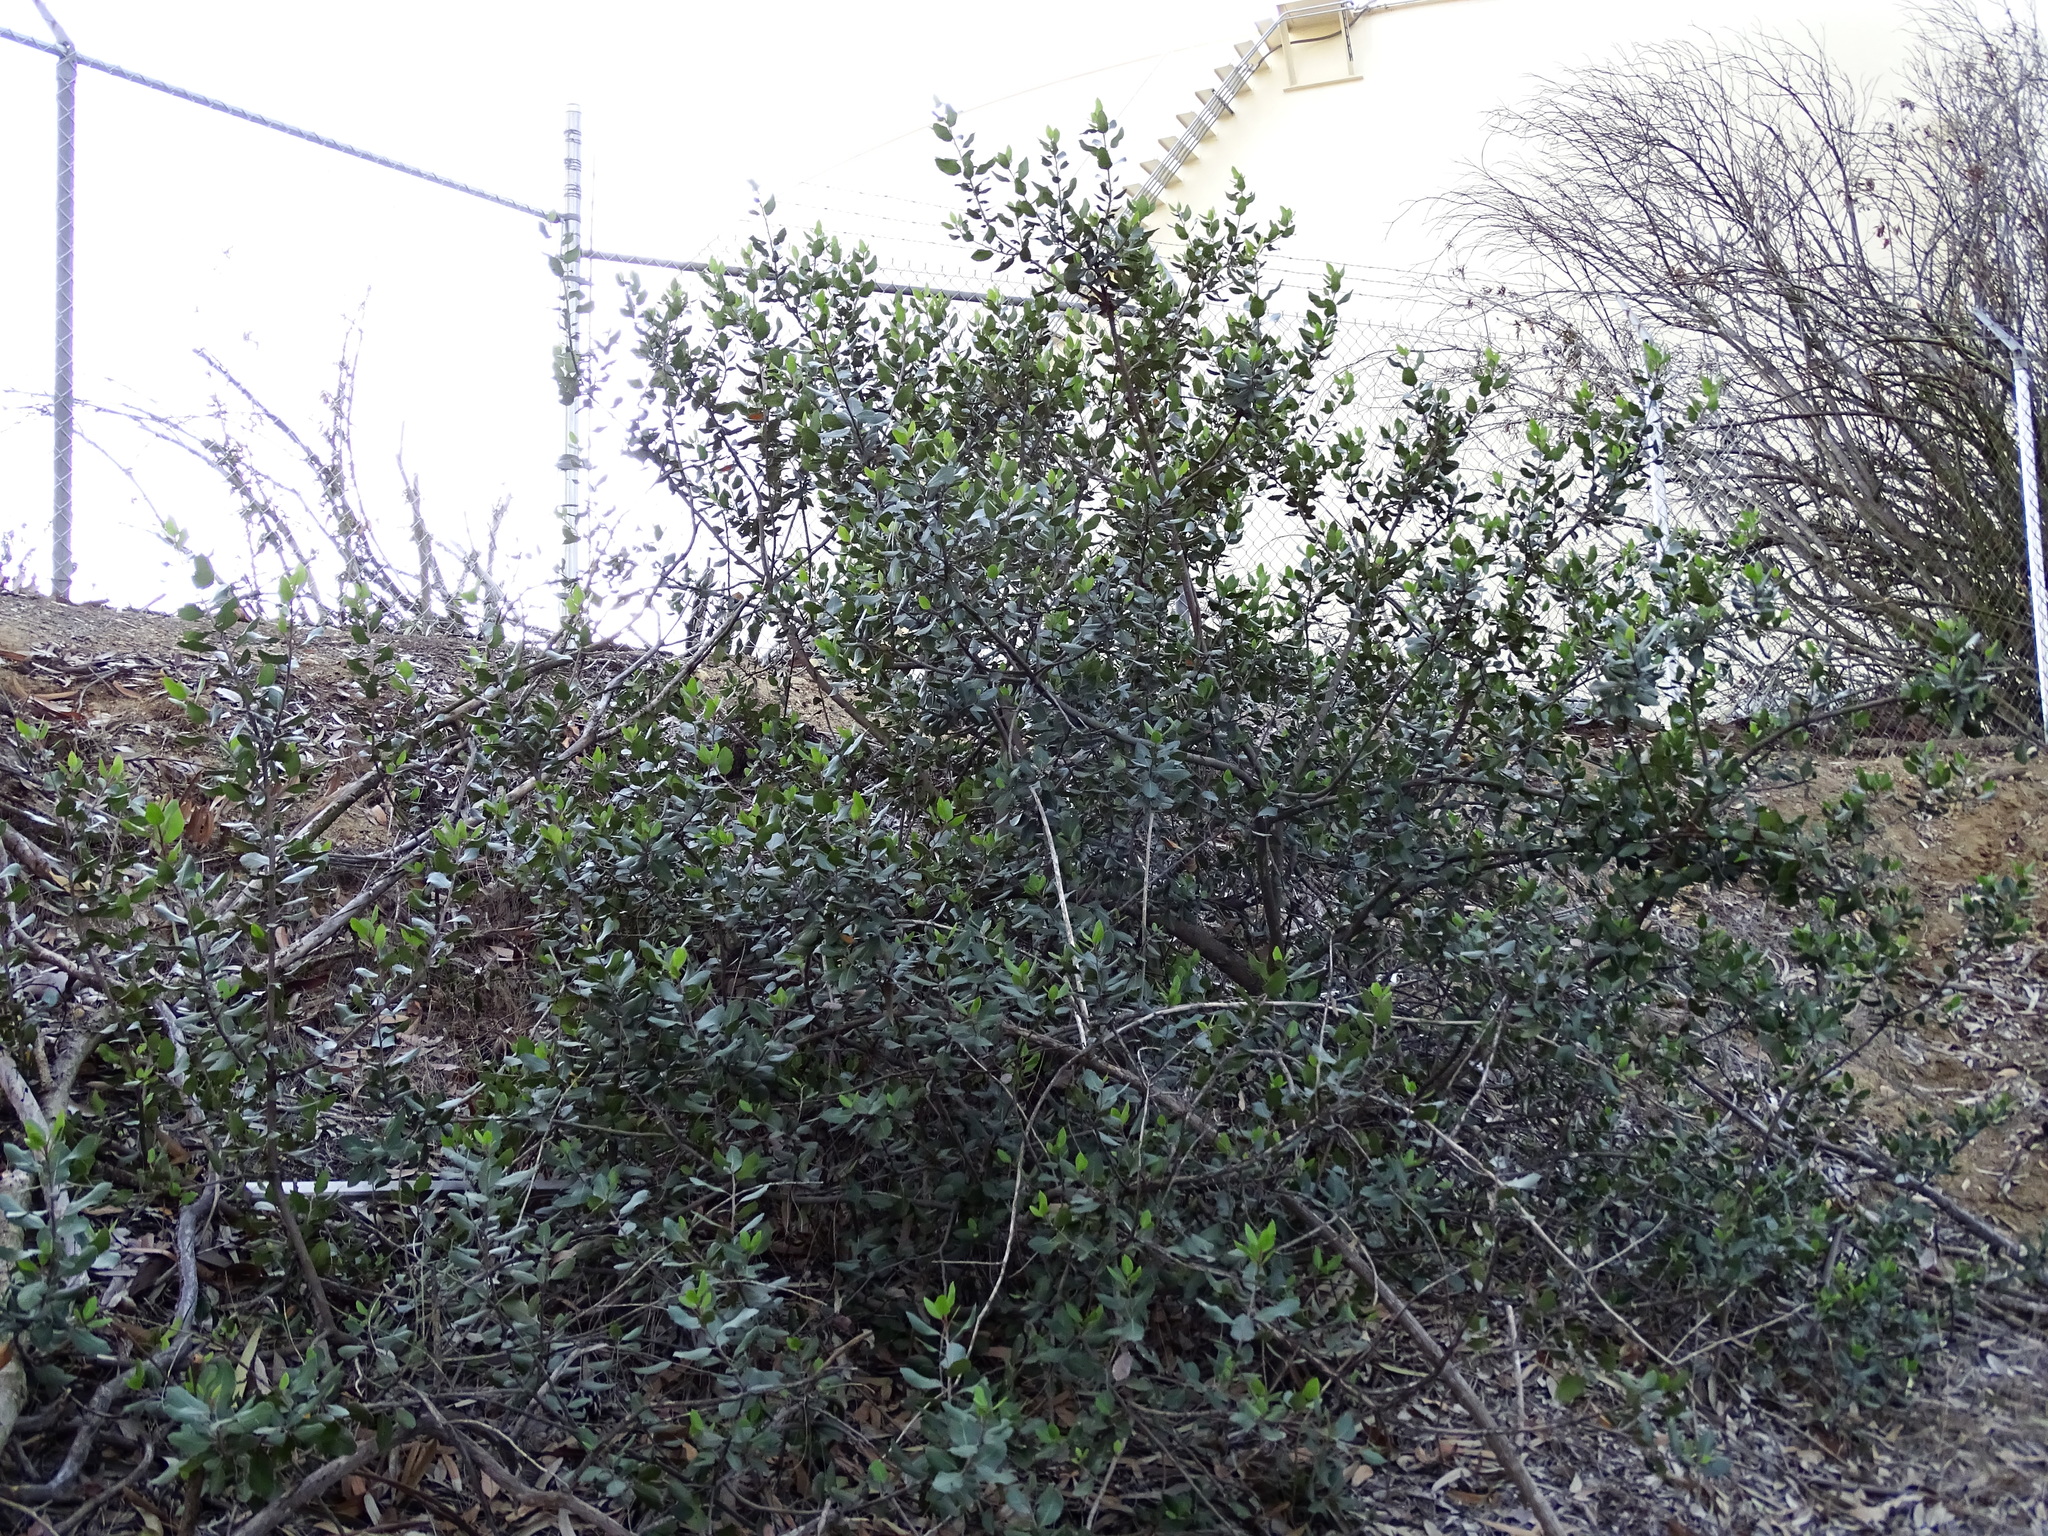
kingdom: Plantae
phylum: Tracheophyta
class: Magnoliopsida
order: Sapindales
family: Anacardiaceae
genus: Rhus
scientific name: Rhus integrifolia
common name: Lemonade sumac
